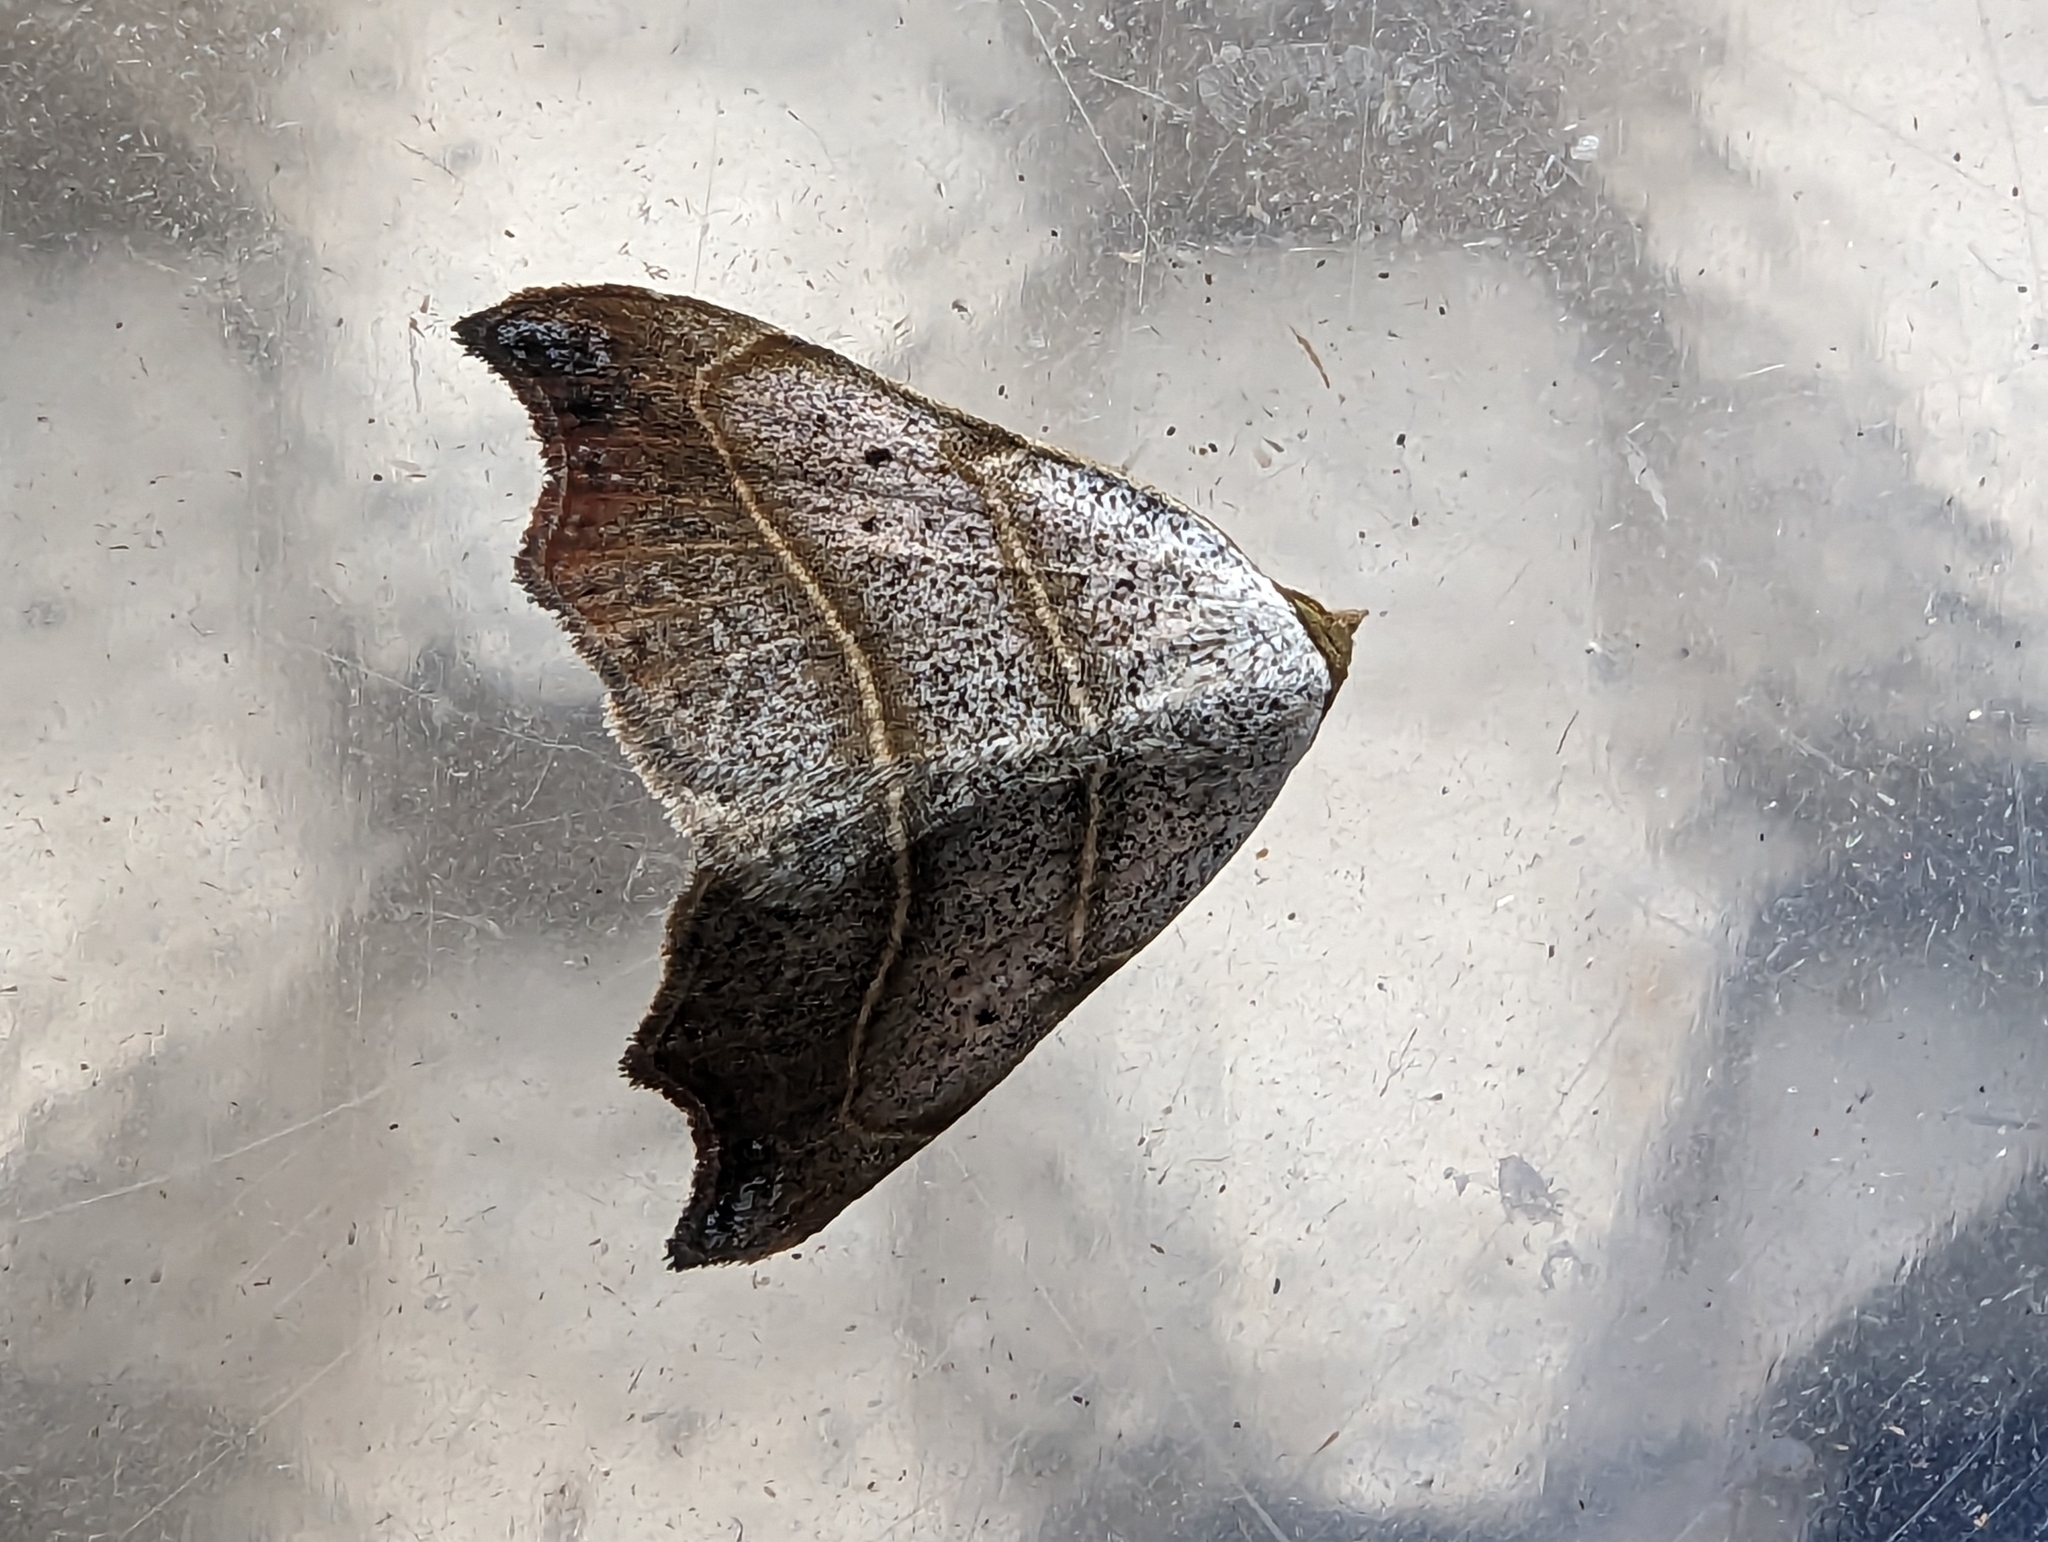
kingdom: Animalia
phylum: Arthropoda
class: Insecta
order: Lepidoptera
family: Erebidae
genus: Laspeyria
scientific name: Laspeyria flexula
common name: Beautiful hook-tip
